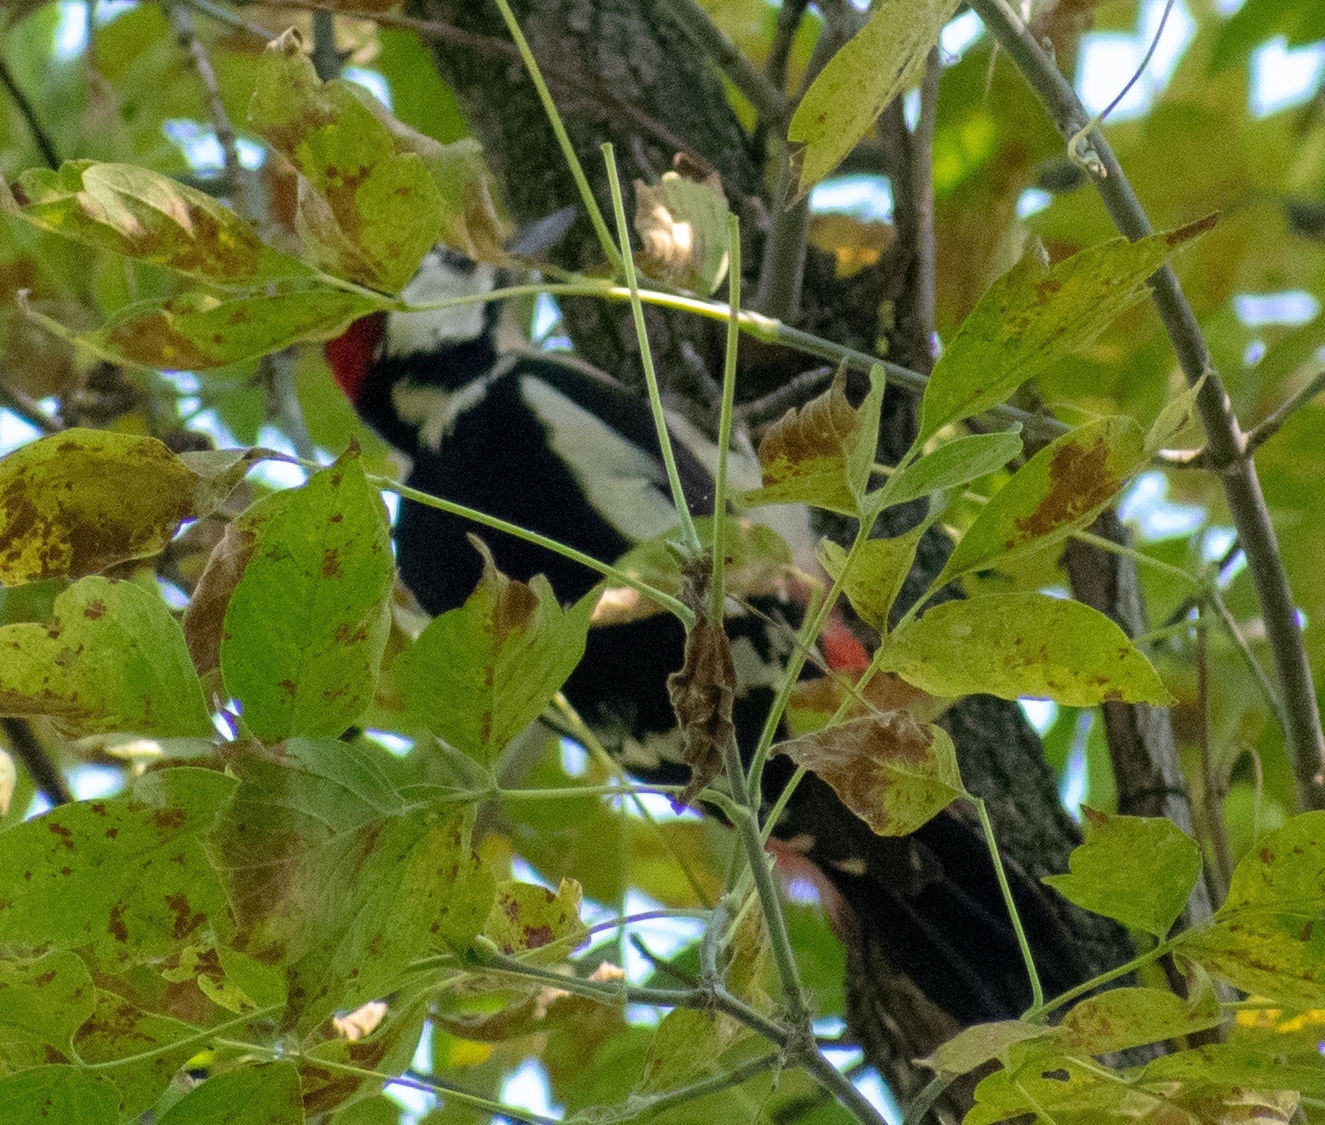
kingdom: Animalia
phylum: Chordata
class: Aves
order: Piciformes
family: Picidae
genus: Dendrocopos
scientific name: Dendrocopos major
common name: Great spotted woodpecker
